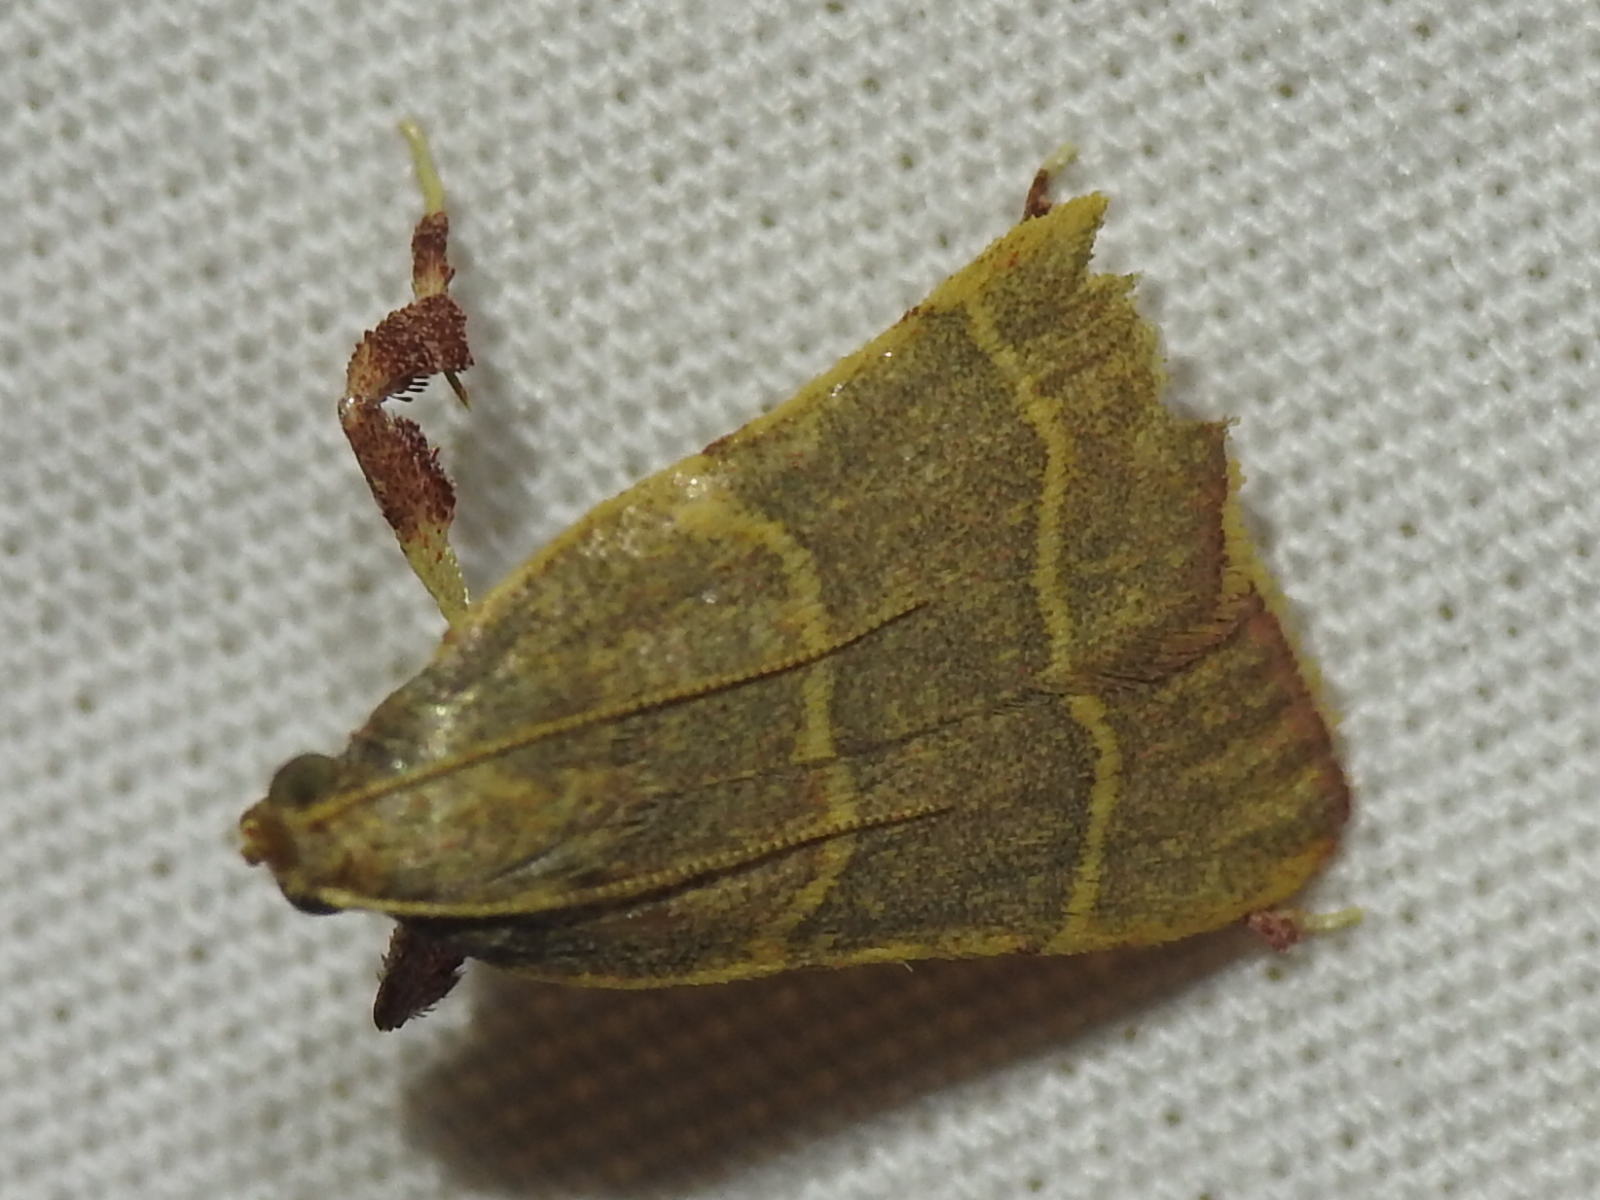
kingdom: Animalia
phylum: Arthropoda
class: Insecta
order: Lepidoptera
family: Pyralidae
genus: Parachma
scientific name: Parachma ochracealis
